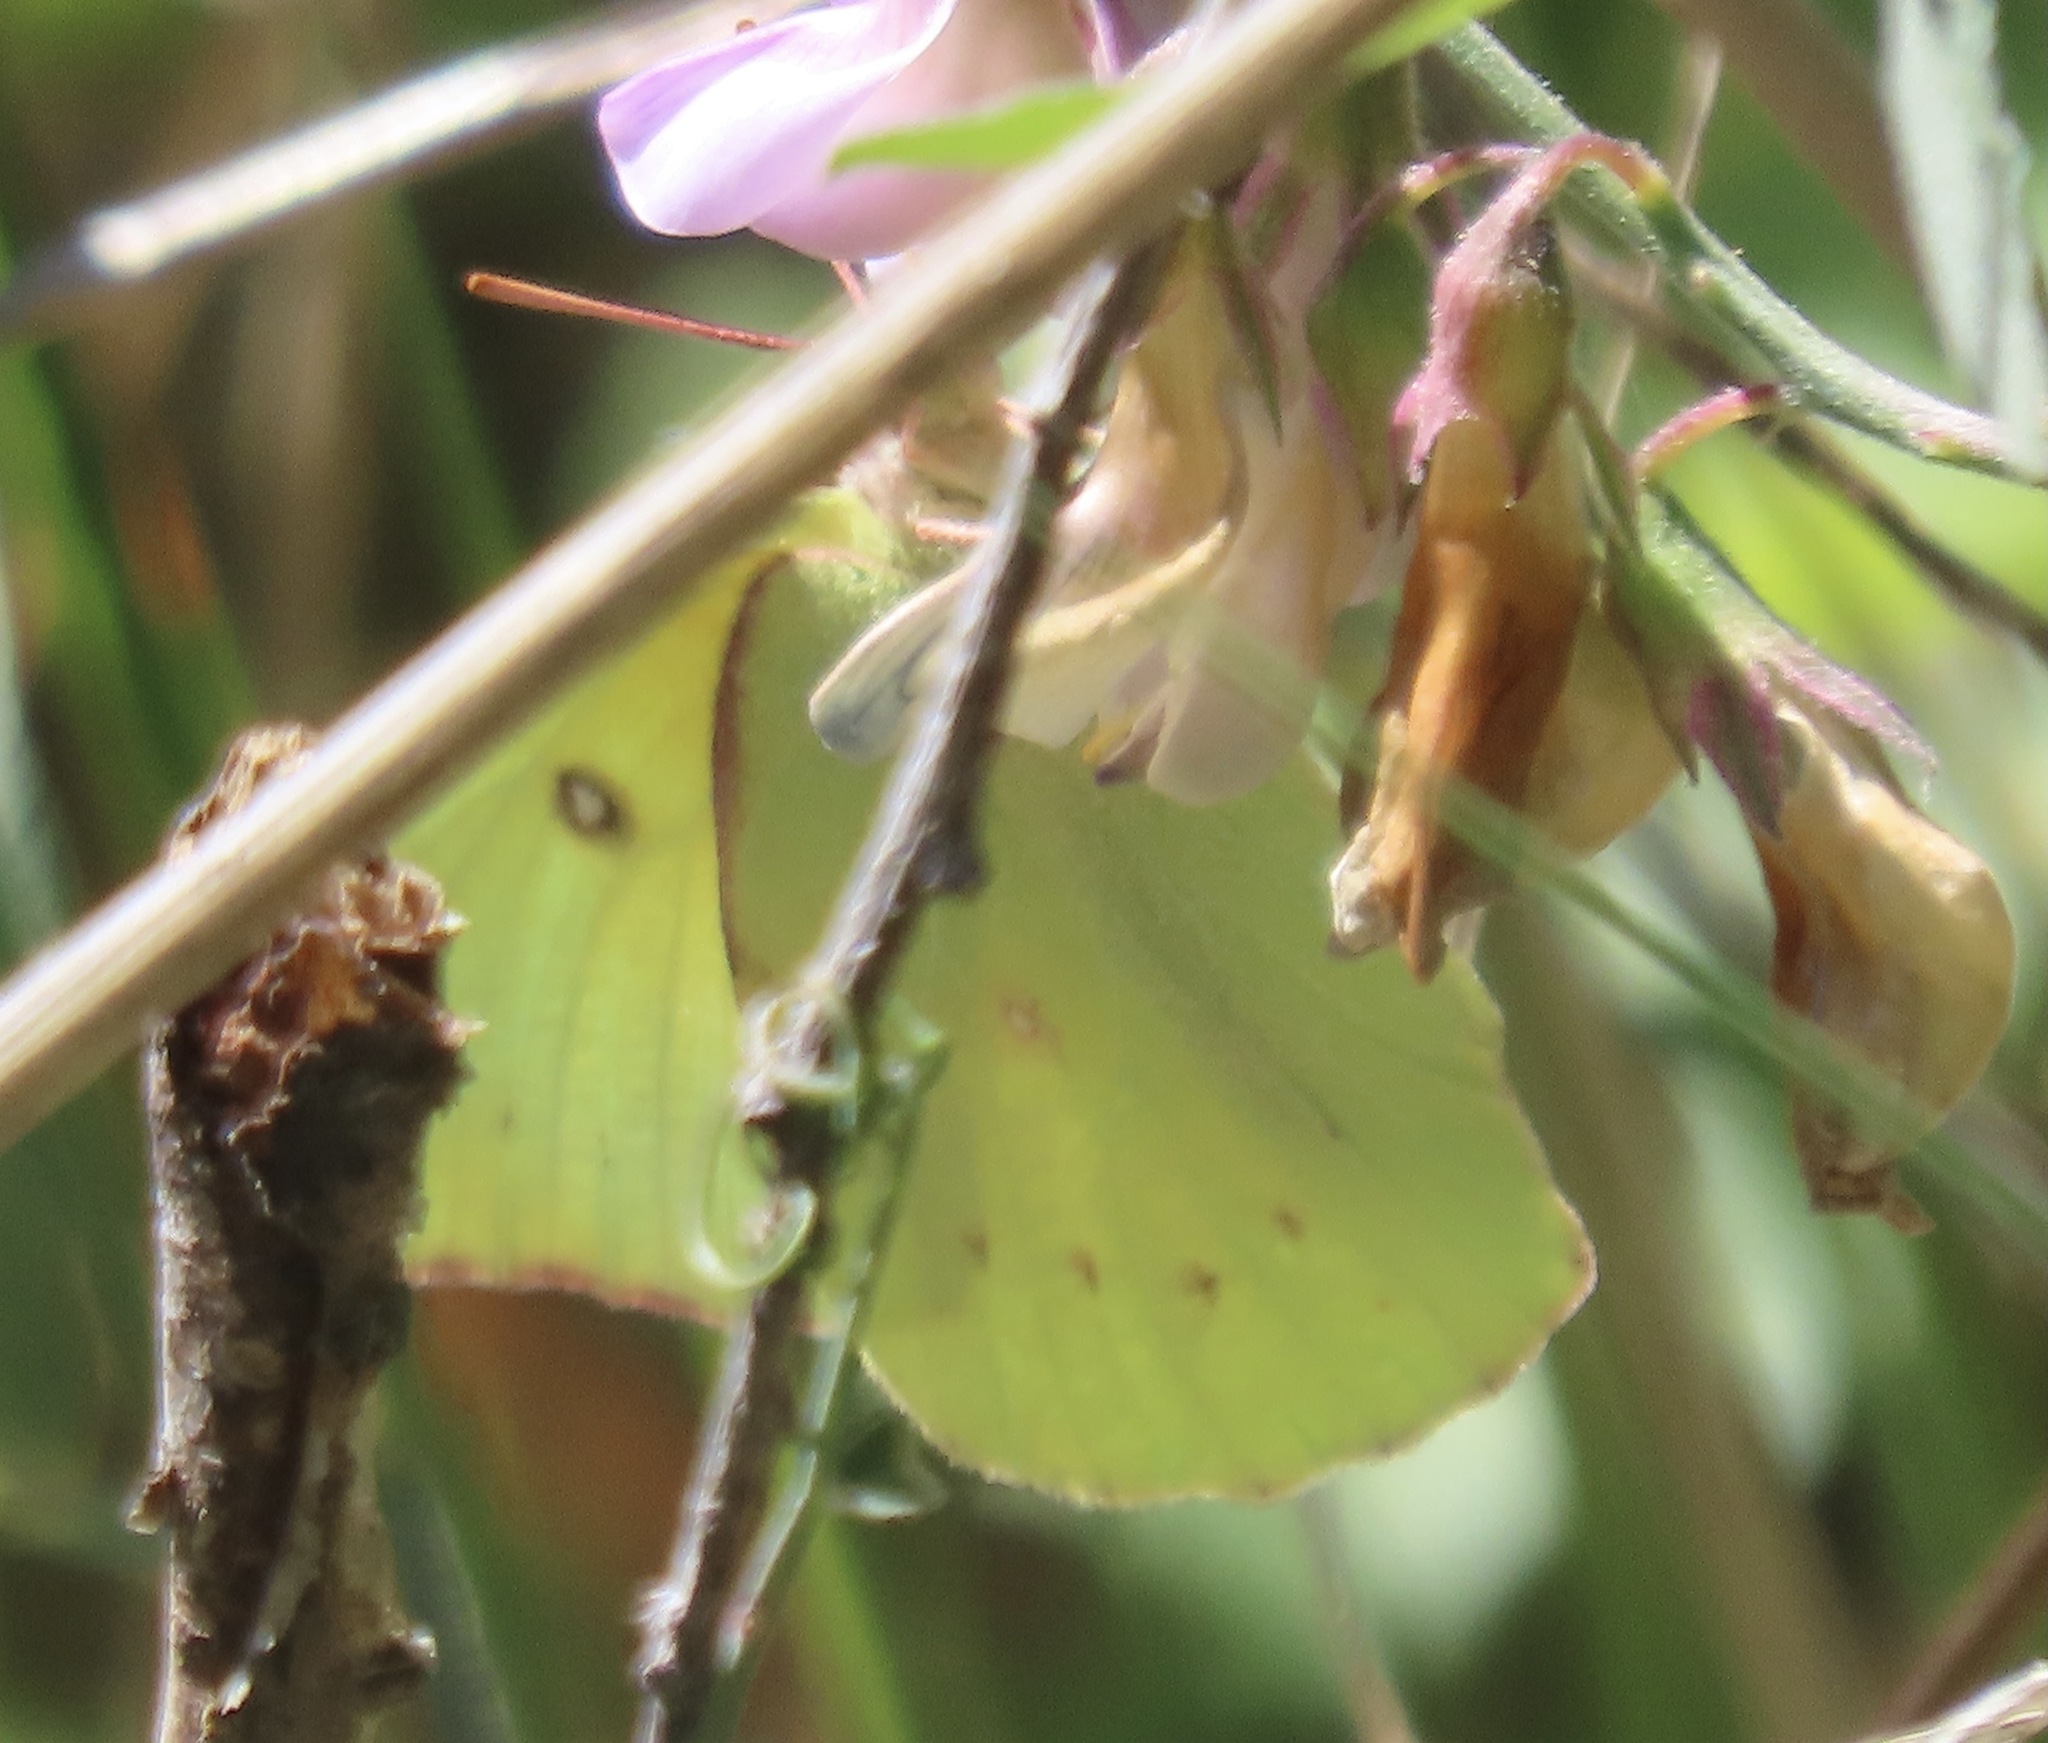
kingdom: Animalia
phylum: Arthropoda
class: Insecta
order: Lepidoptera
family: Pieridae
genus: Zerene
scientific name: Zerene eurydice
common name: California dogface
